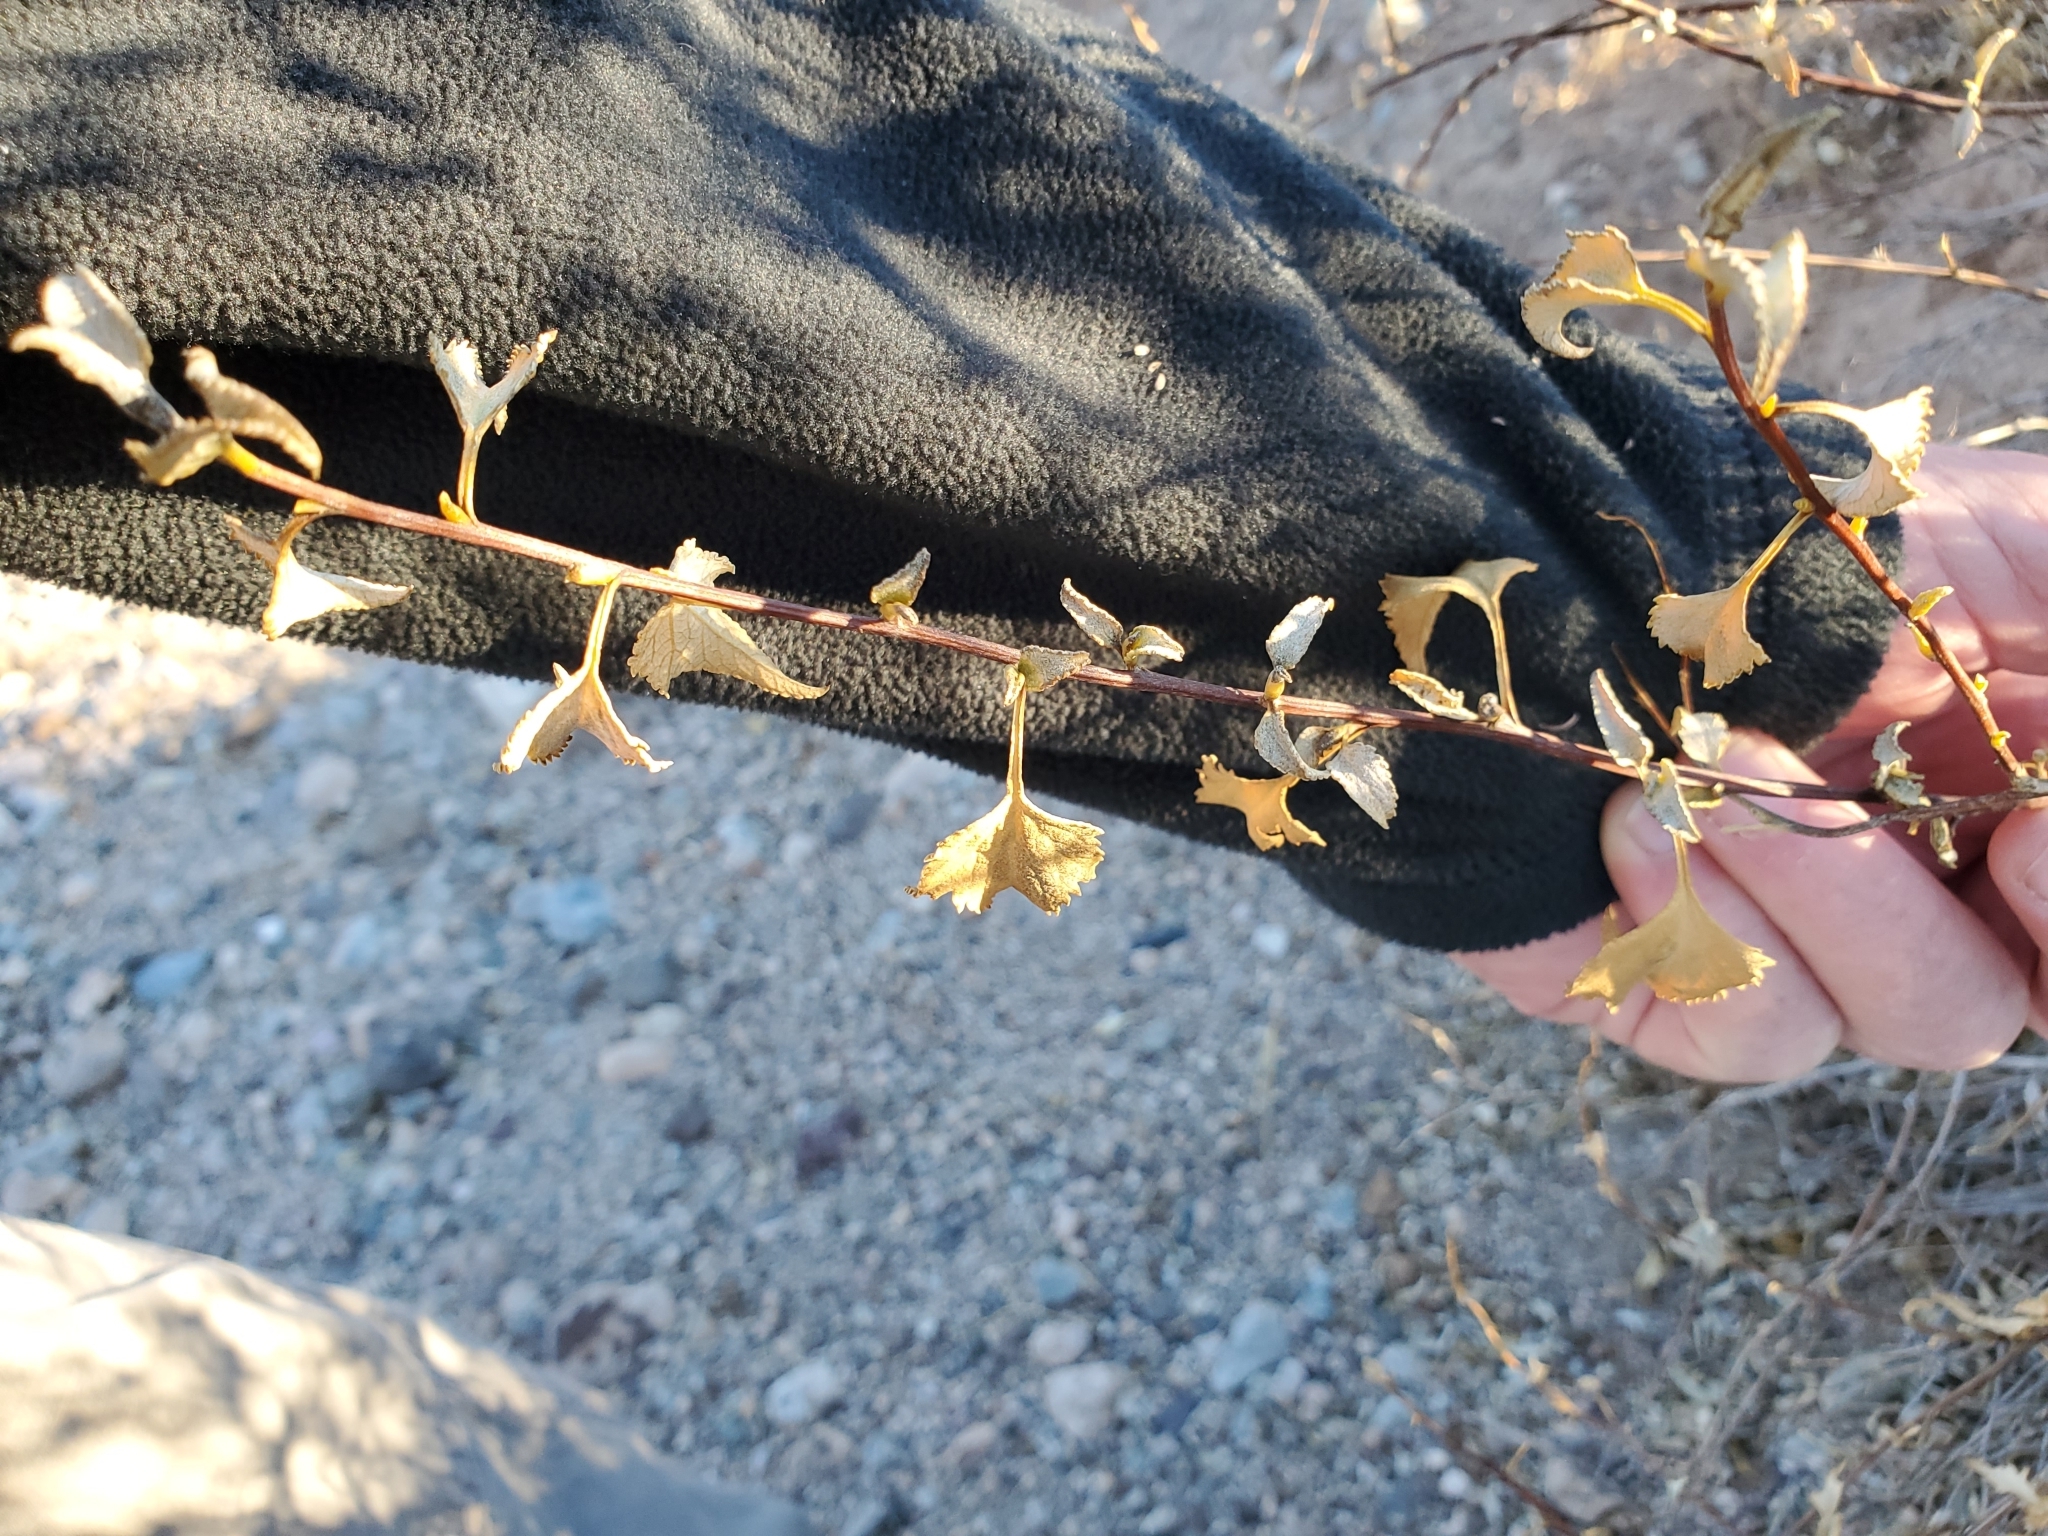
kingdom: Plantae
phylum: Tracheophyta
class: Magnoliopsida
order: Asterales
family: Asteraceae
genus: Ambrosia
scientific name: Ambrosia deltoidea
